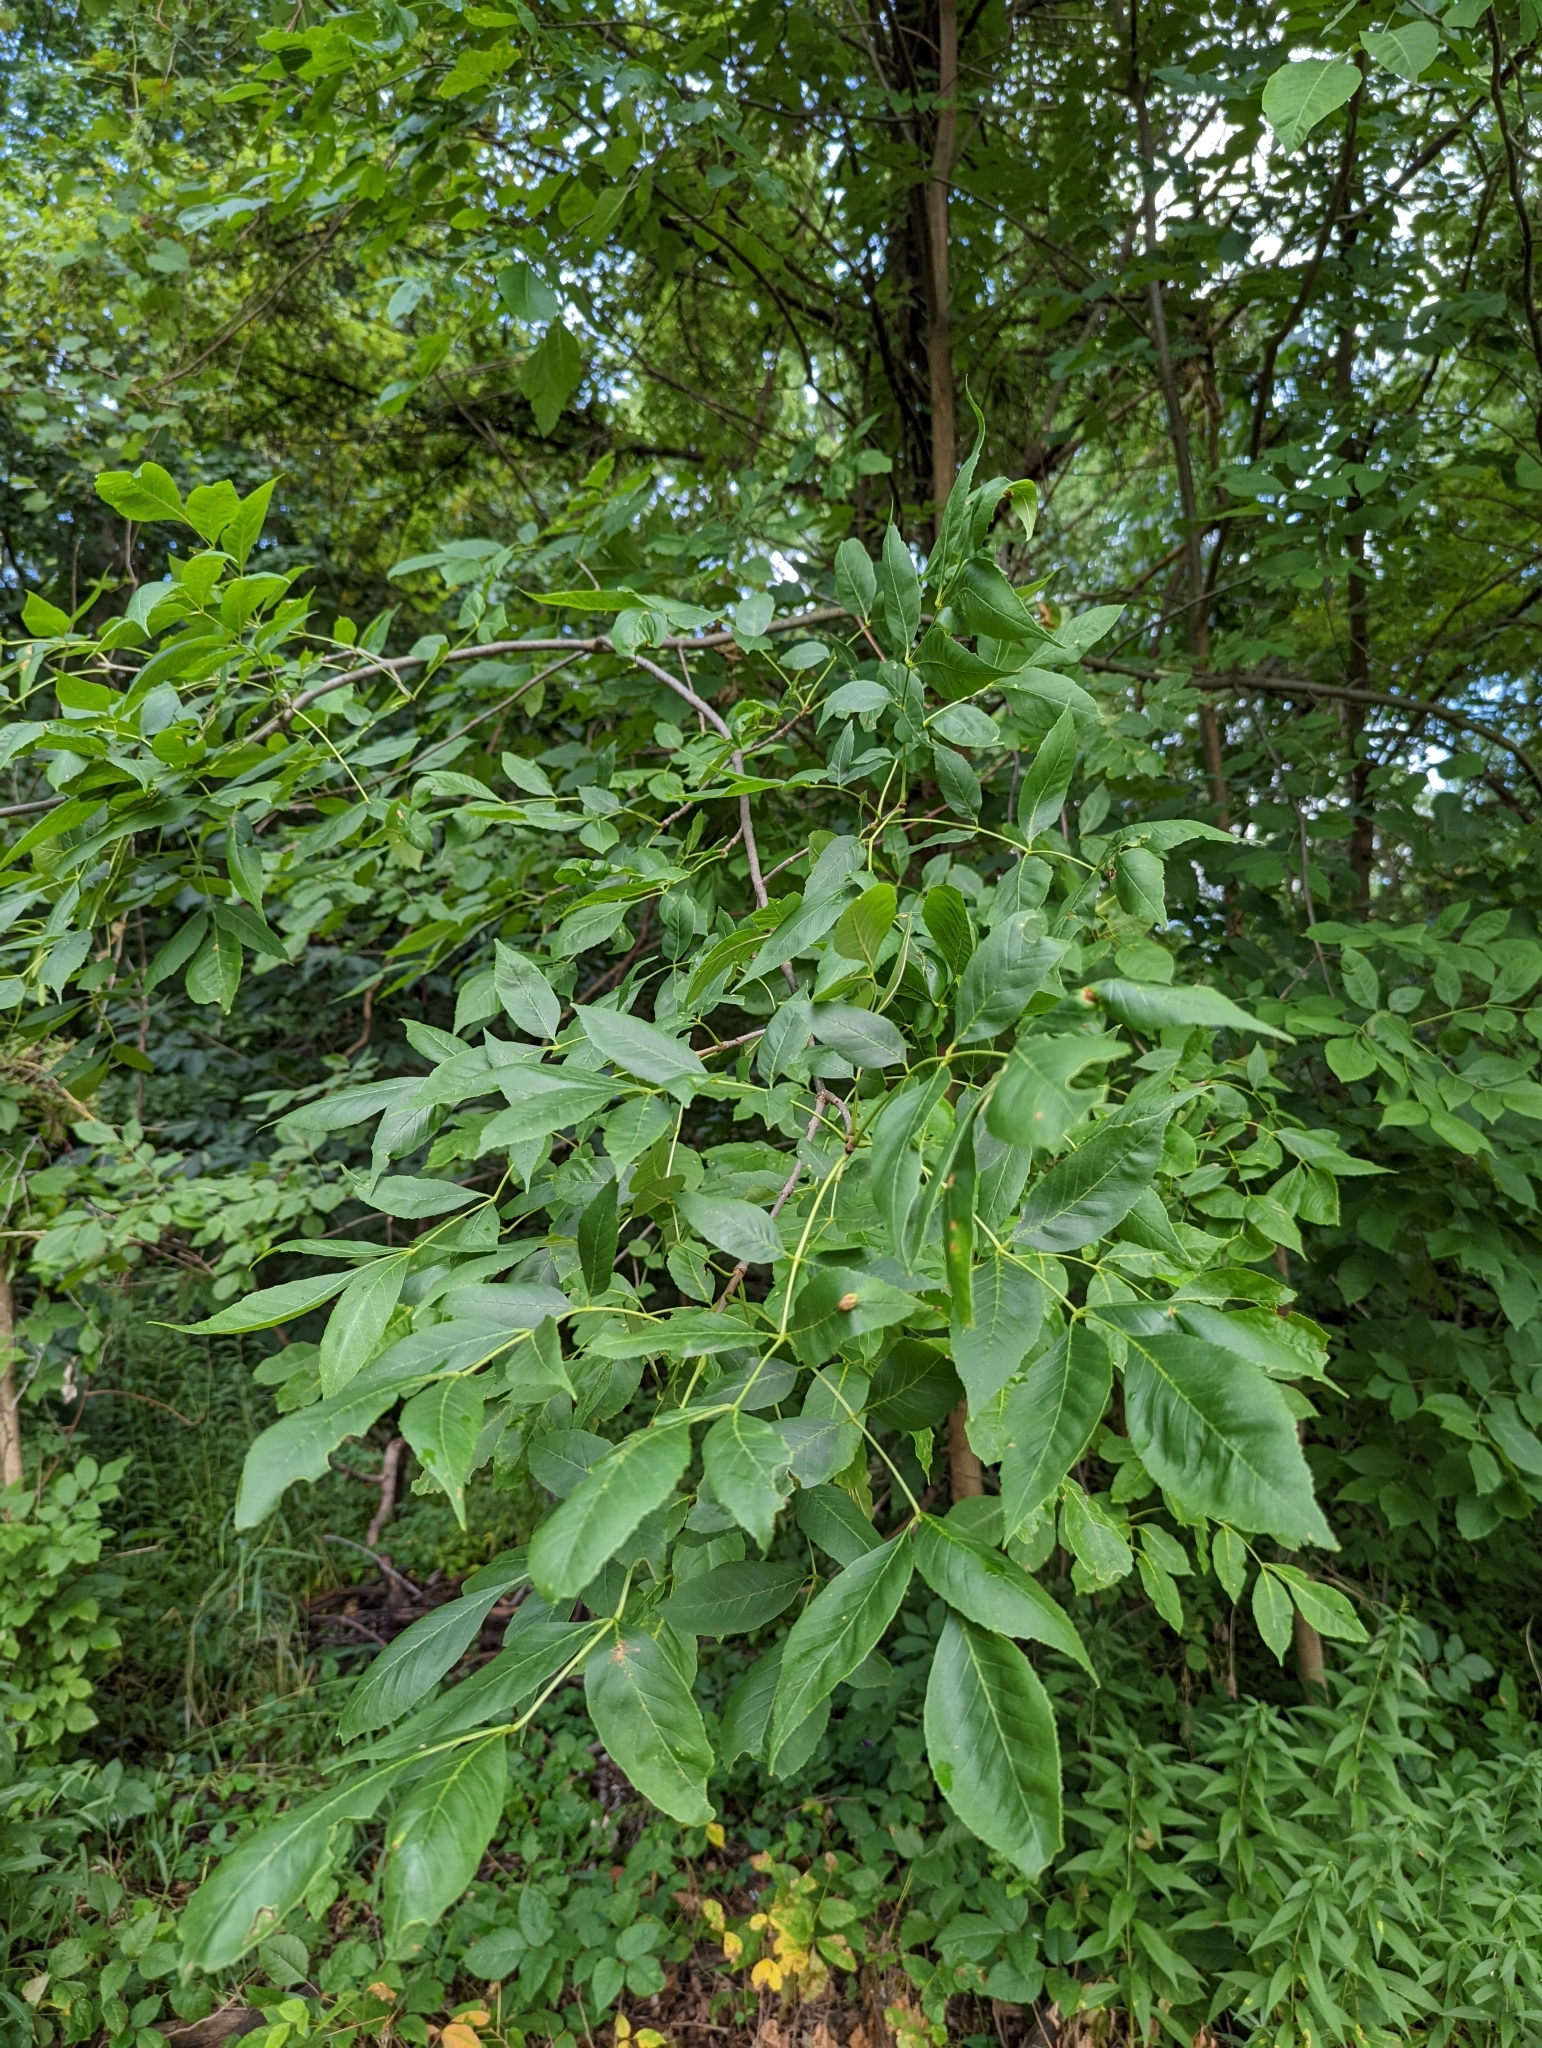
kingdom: Fungi
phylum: Basidiomycota
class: Pucciniomycetes
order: Pucciniales
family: Pucciniaceae
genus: Puccinia
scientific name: Puccinia sparganioidis
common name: Ash rust
